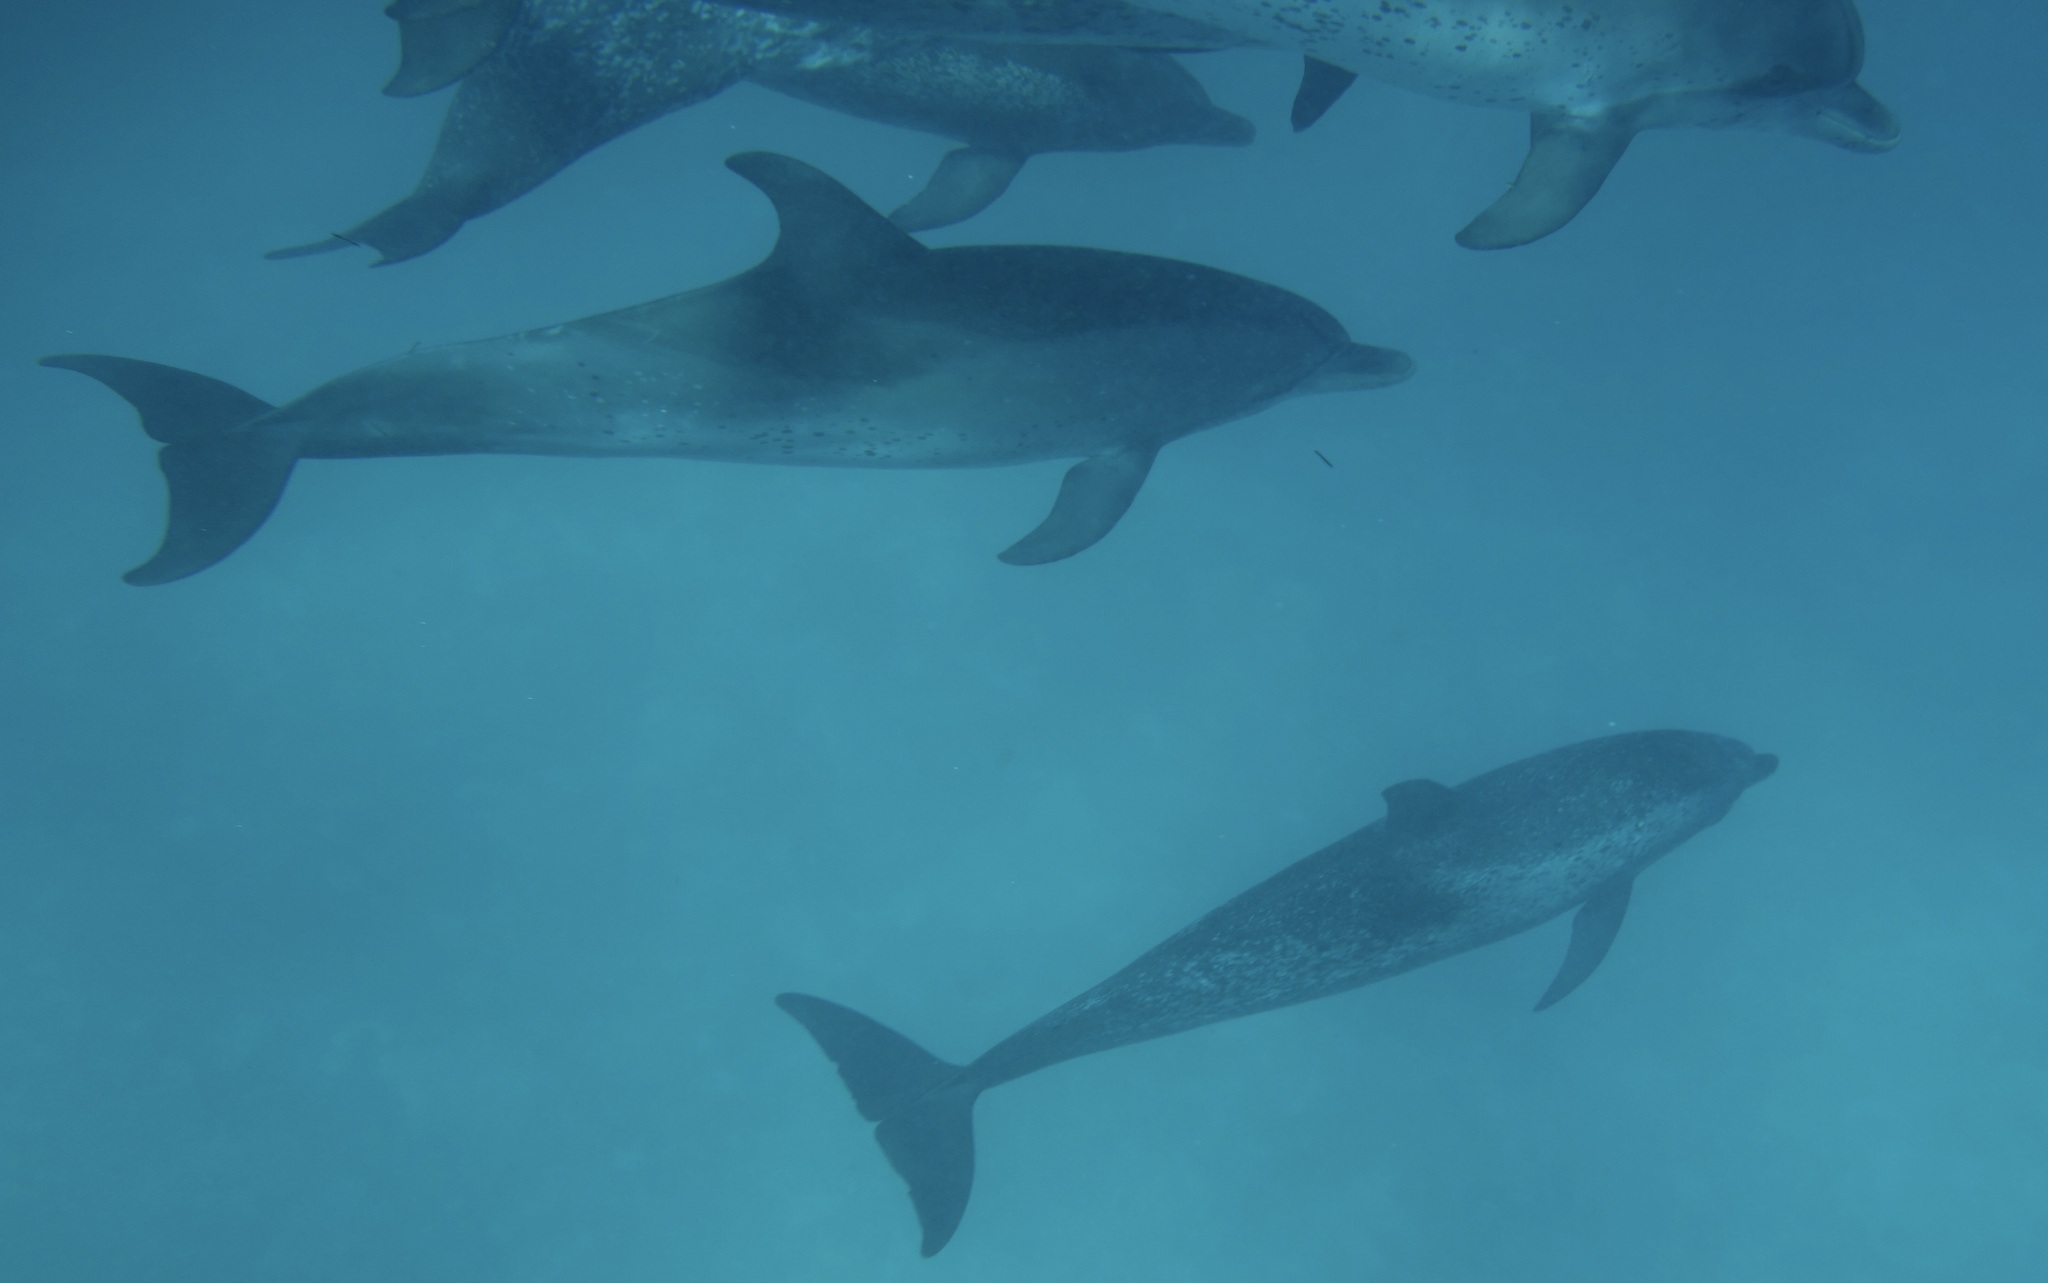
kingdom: Animalia
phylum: Chordata
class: Mammalia
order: Cetacea
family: Delphinidae
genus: Stenella
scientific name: Stenella frontalis
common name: Atlantic spotted dolphin
